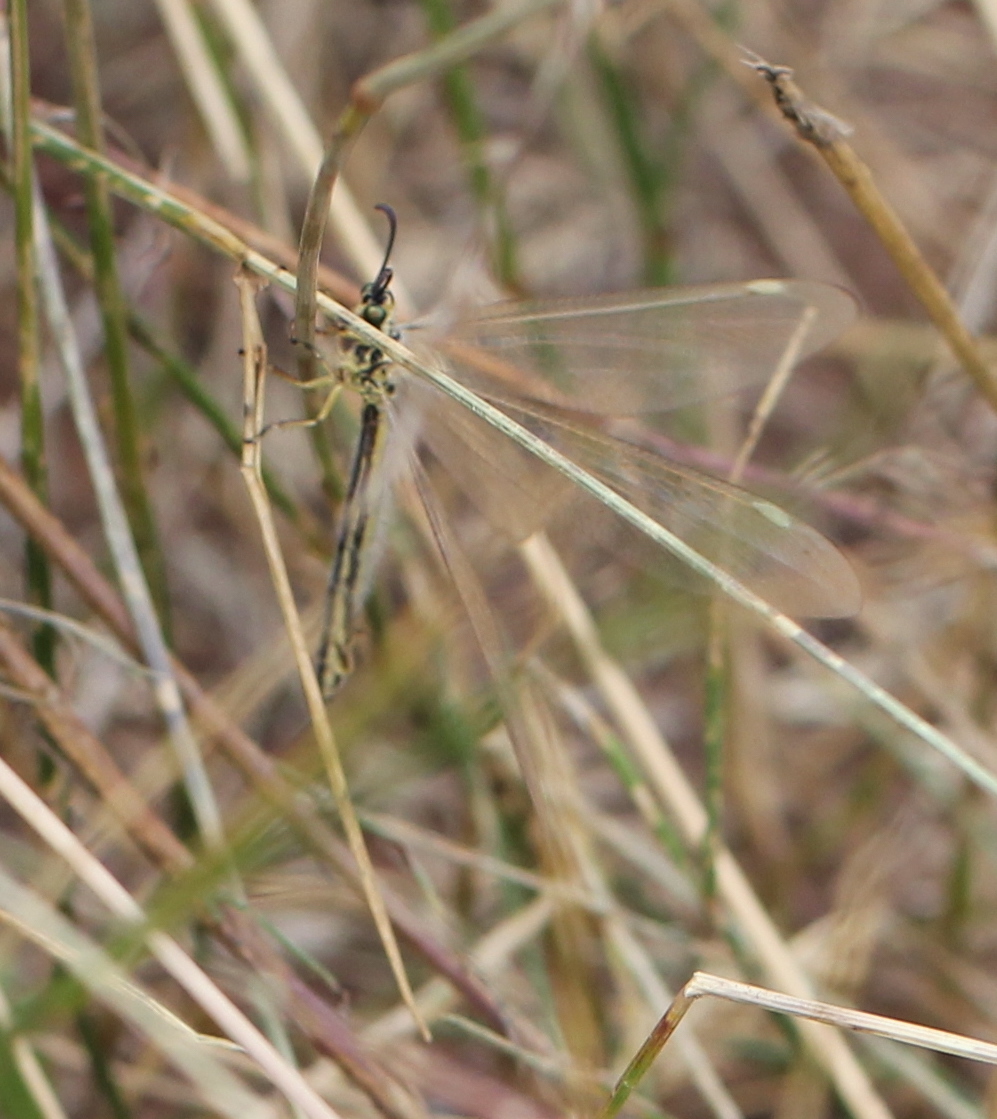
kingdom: Animalia
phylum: Arthropoda
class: Insecta
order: Neuroptera
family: Myrmeleontidae
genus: Myrmecaelurus
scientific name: Myrmecaelurus trigrammus
